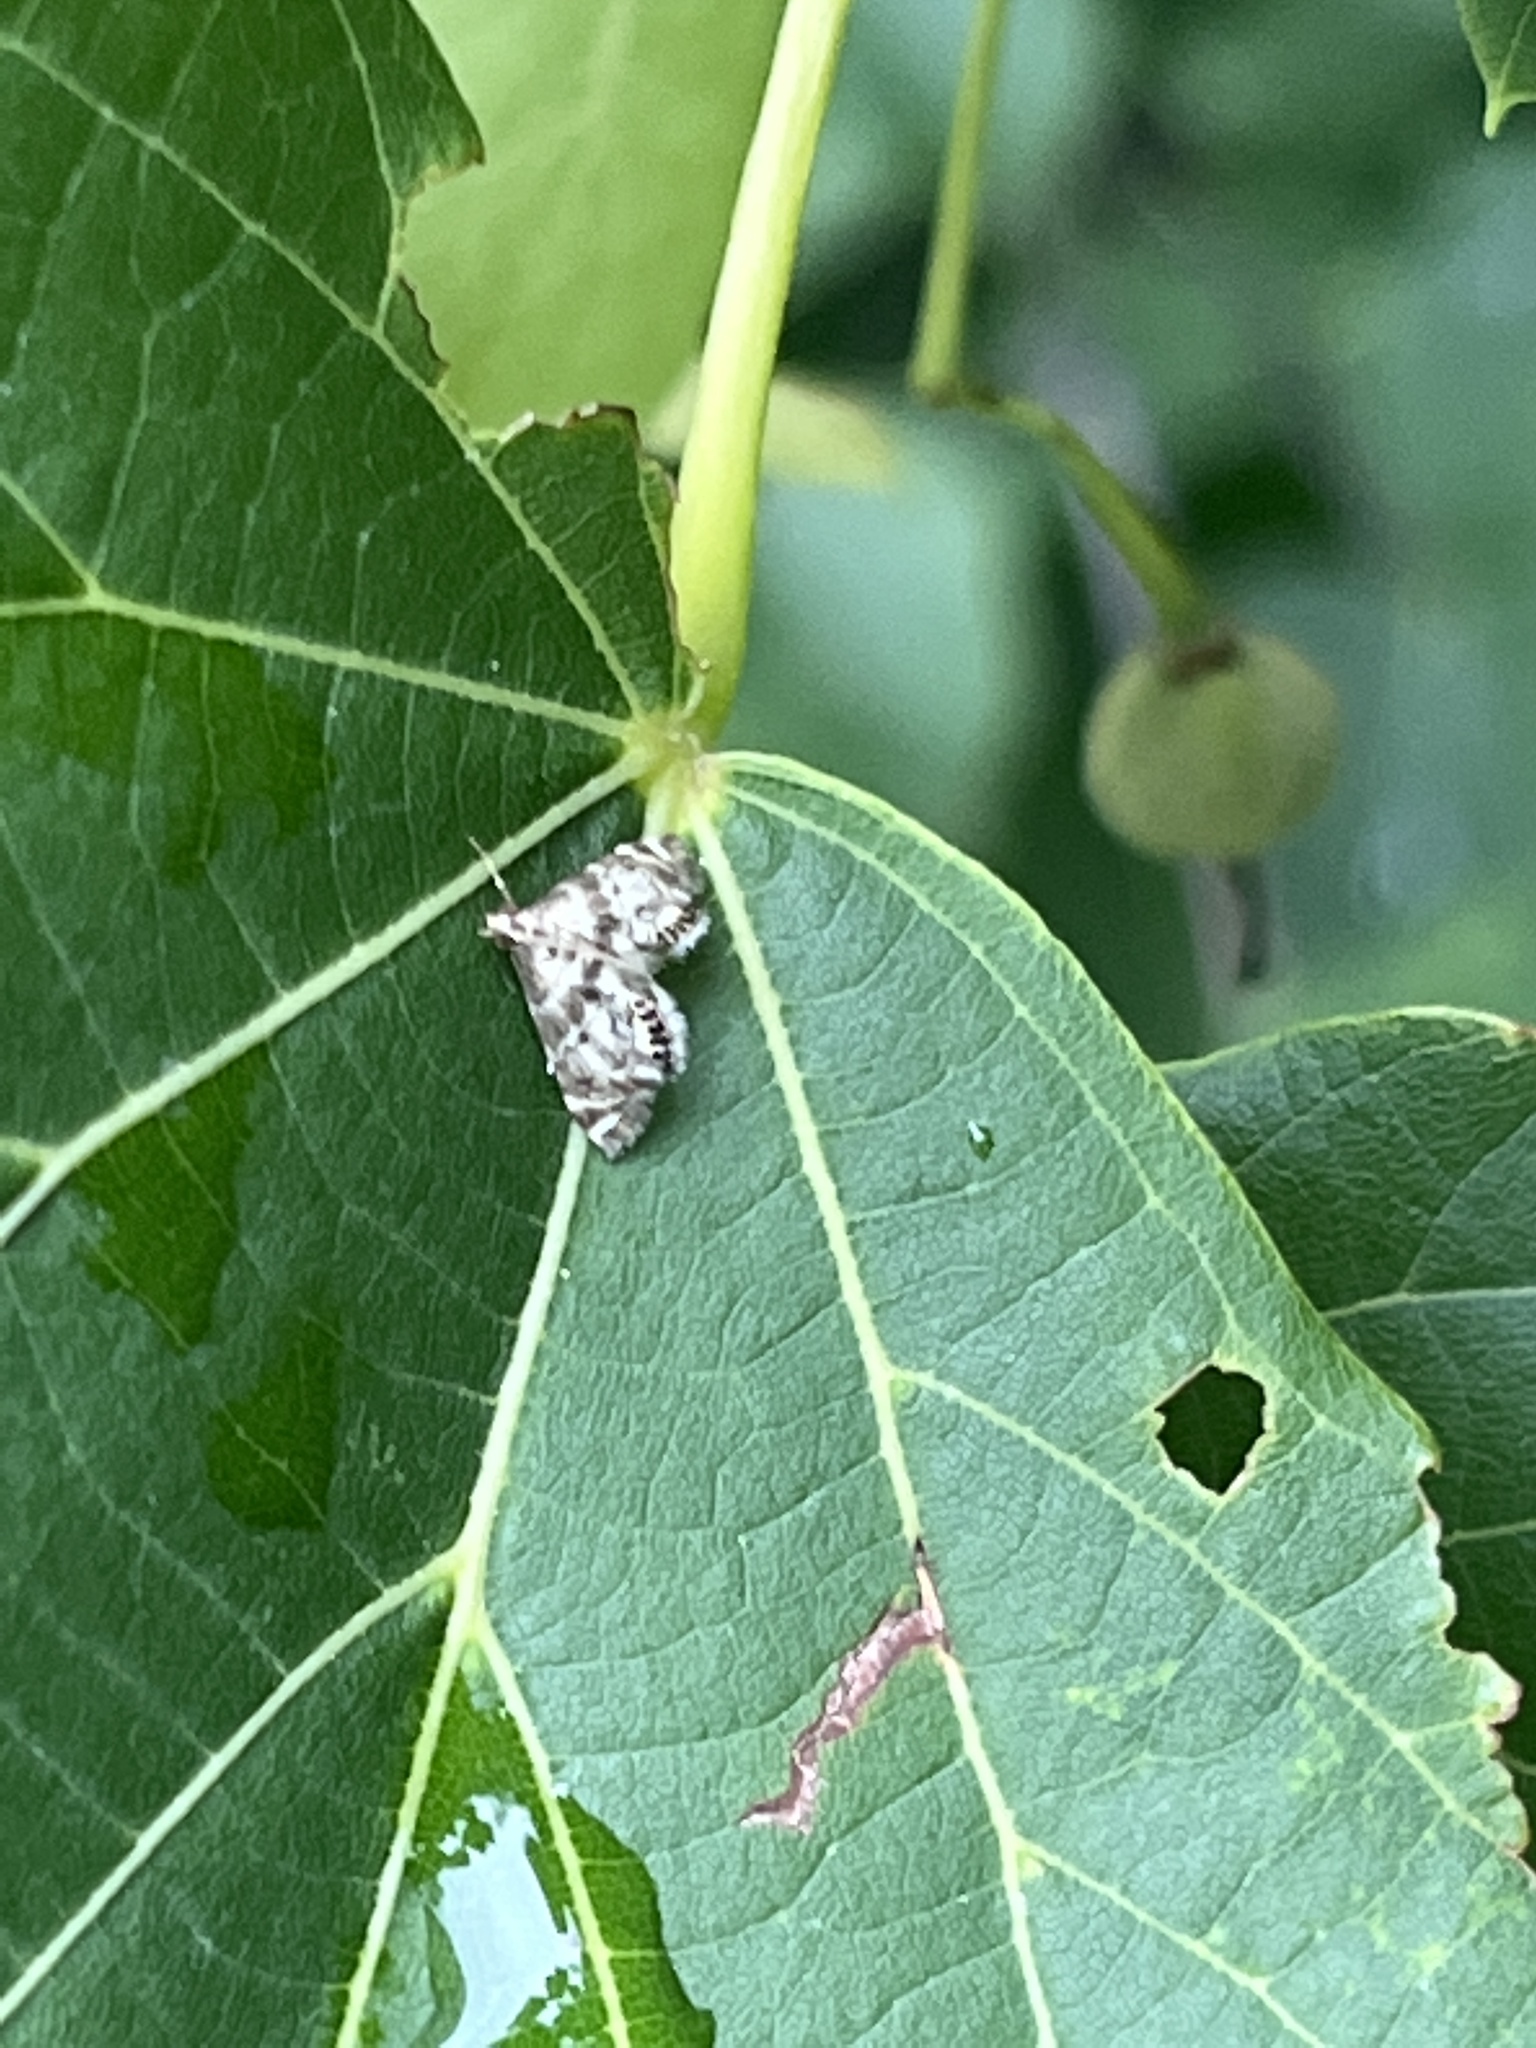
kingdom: Animalia
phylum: Arthropoda
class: Insecta
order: Lepidoptera
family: Crambidae
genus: Petrophila
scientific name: Petrophila fulicalis
